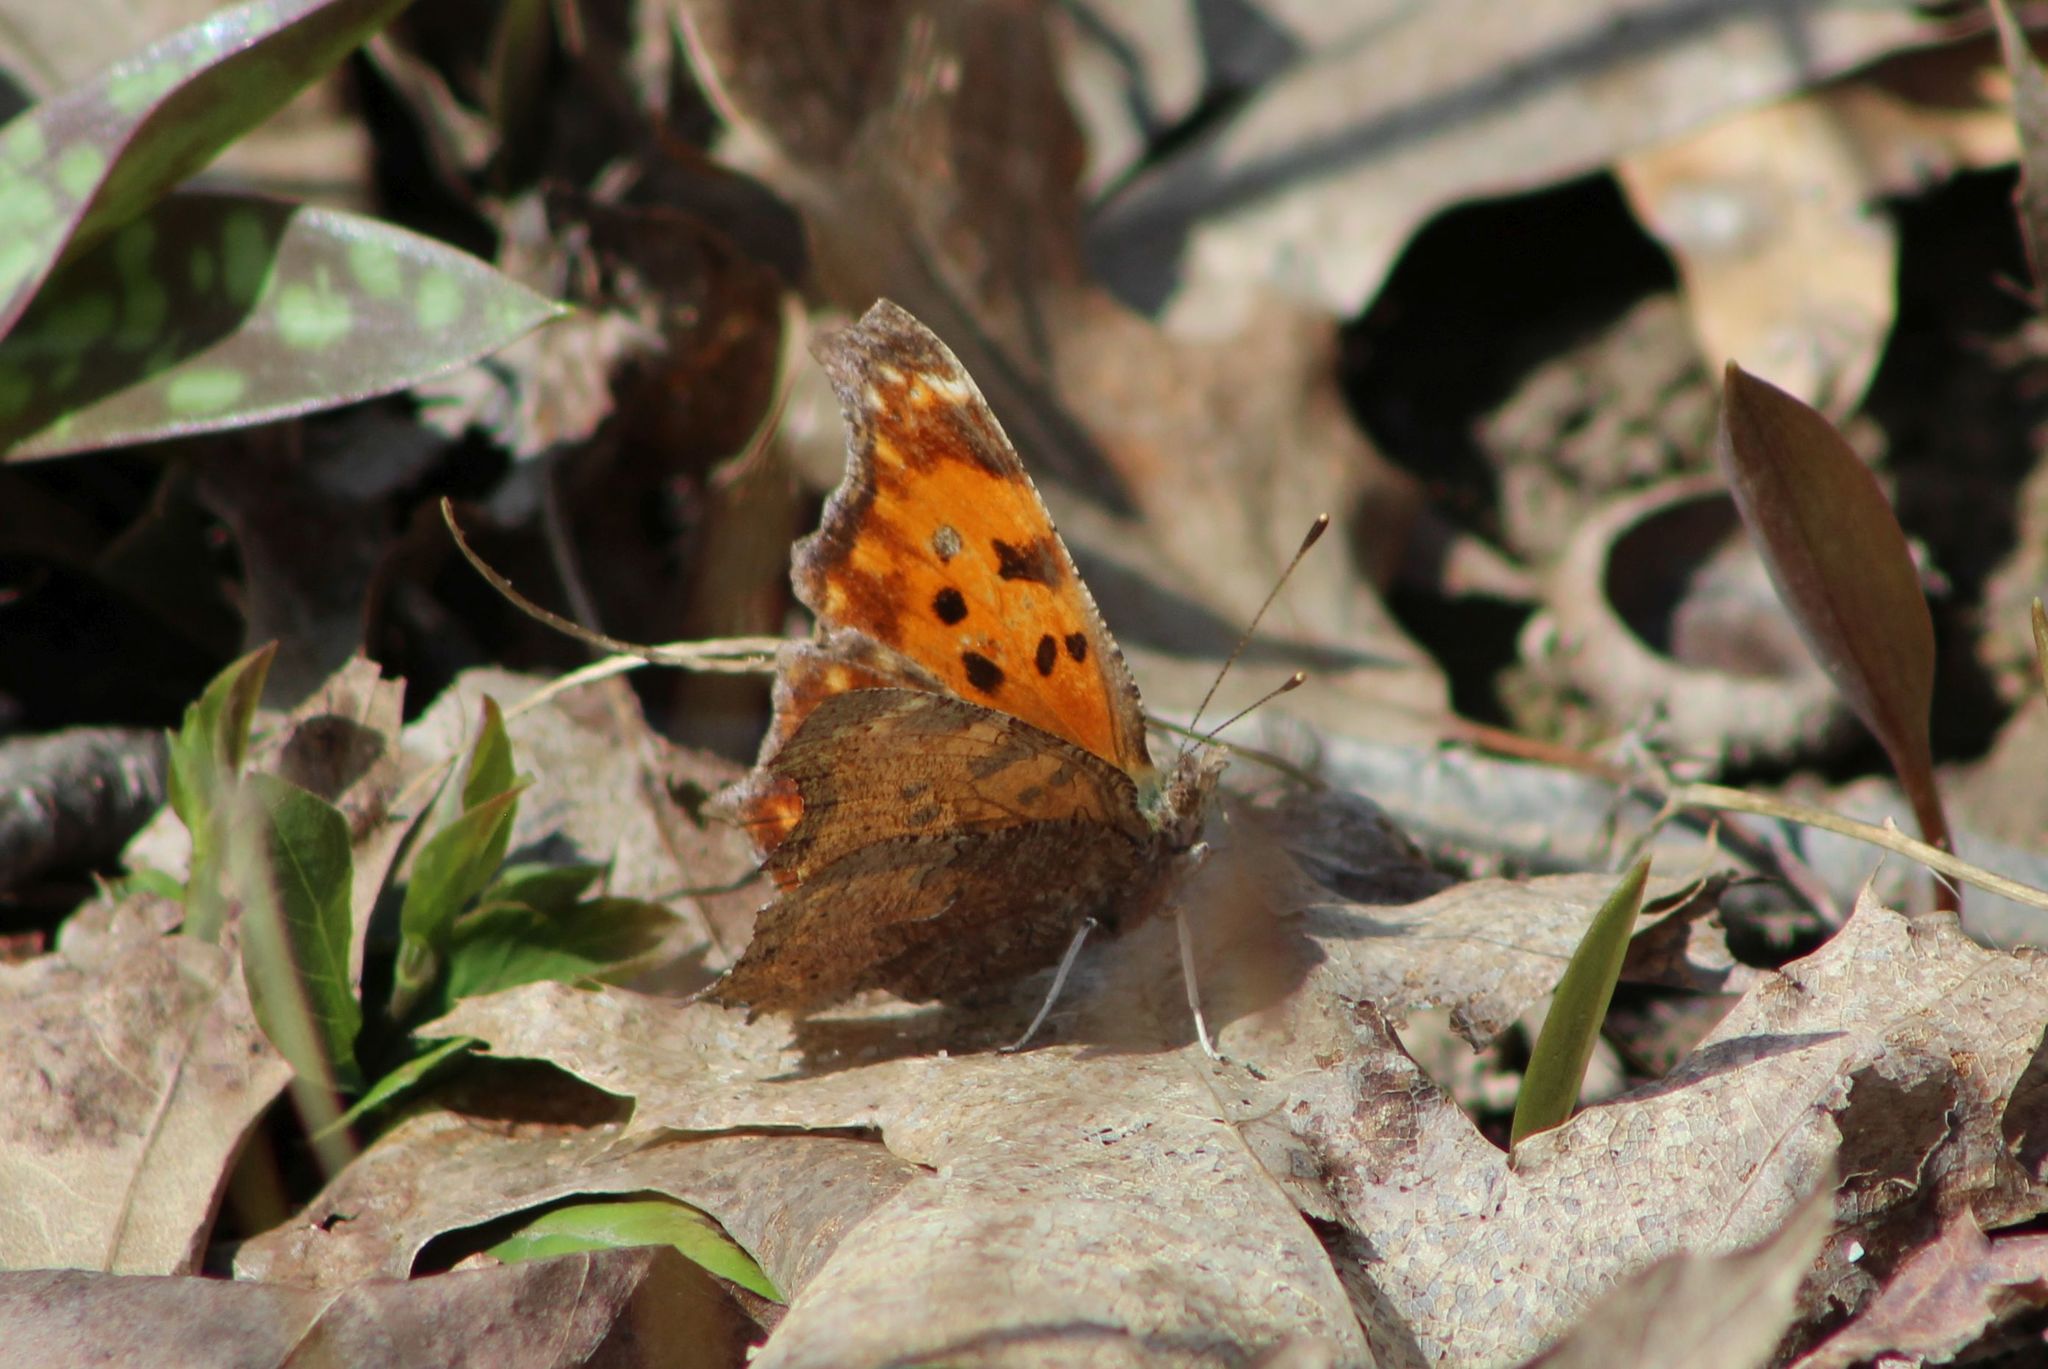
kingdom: Animalia
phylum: Arthropoda
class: Insecta
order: Lepidoptera
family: Nymphalidae
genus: Polygonia
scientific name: Polygonia comma
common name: Eastern comma
